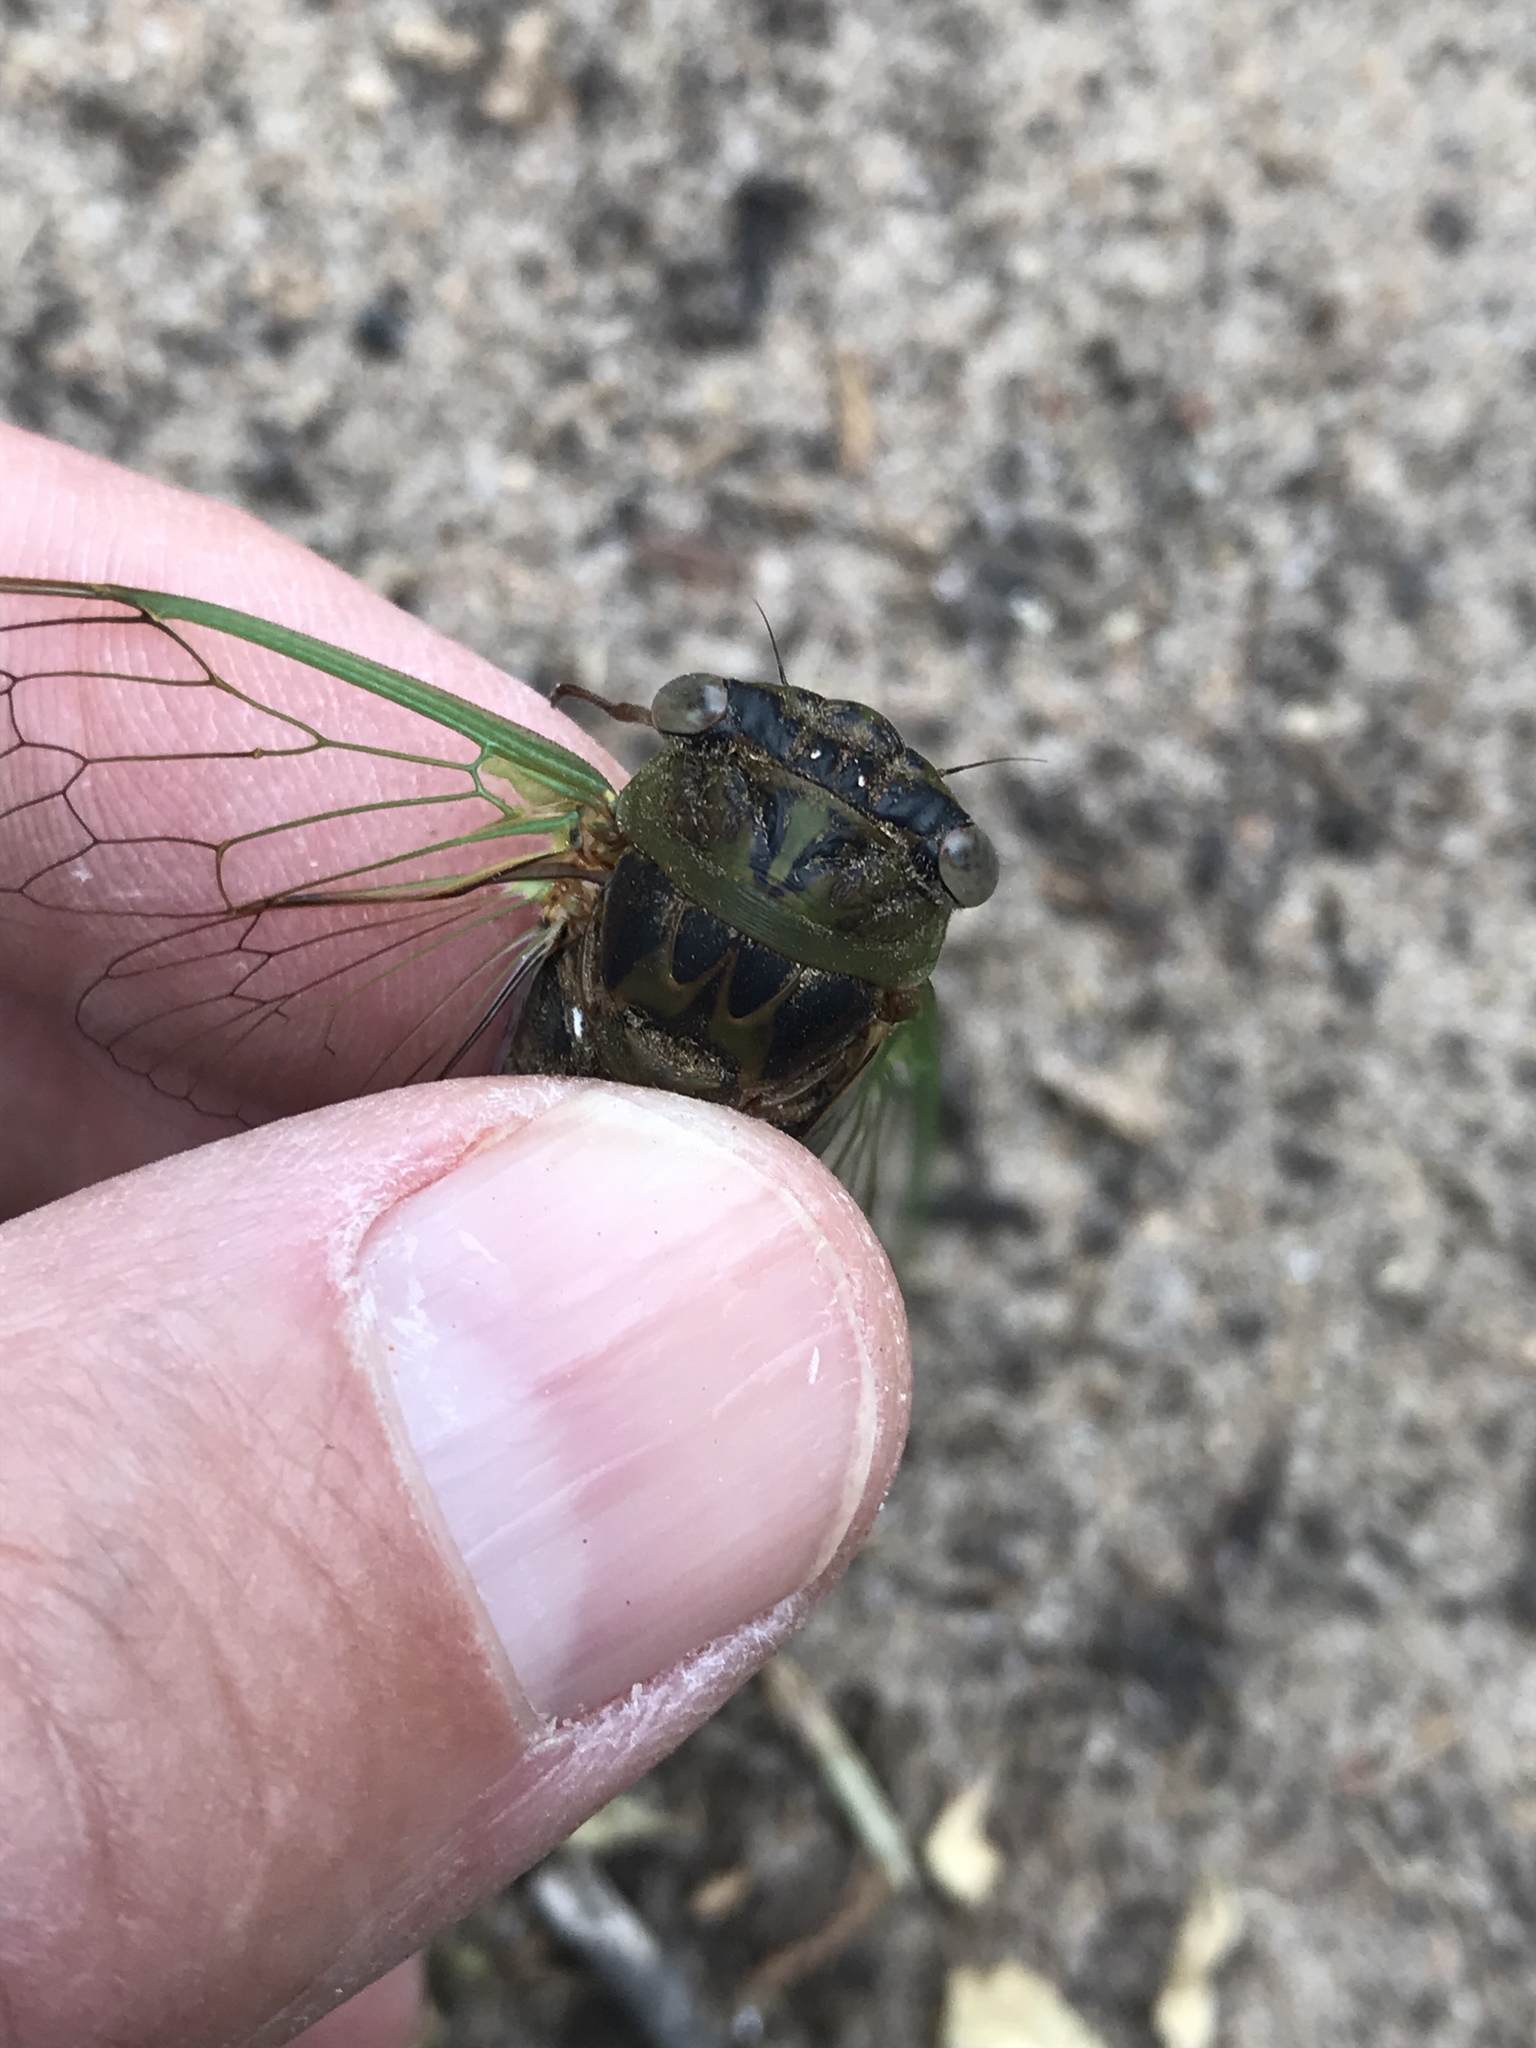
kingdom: Animalia
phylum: Arthropoda
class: Insecta
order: Hemiptera
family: Cicadidae
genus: Neotibicen
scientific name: Neotibicen aurifer
